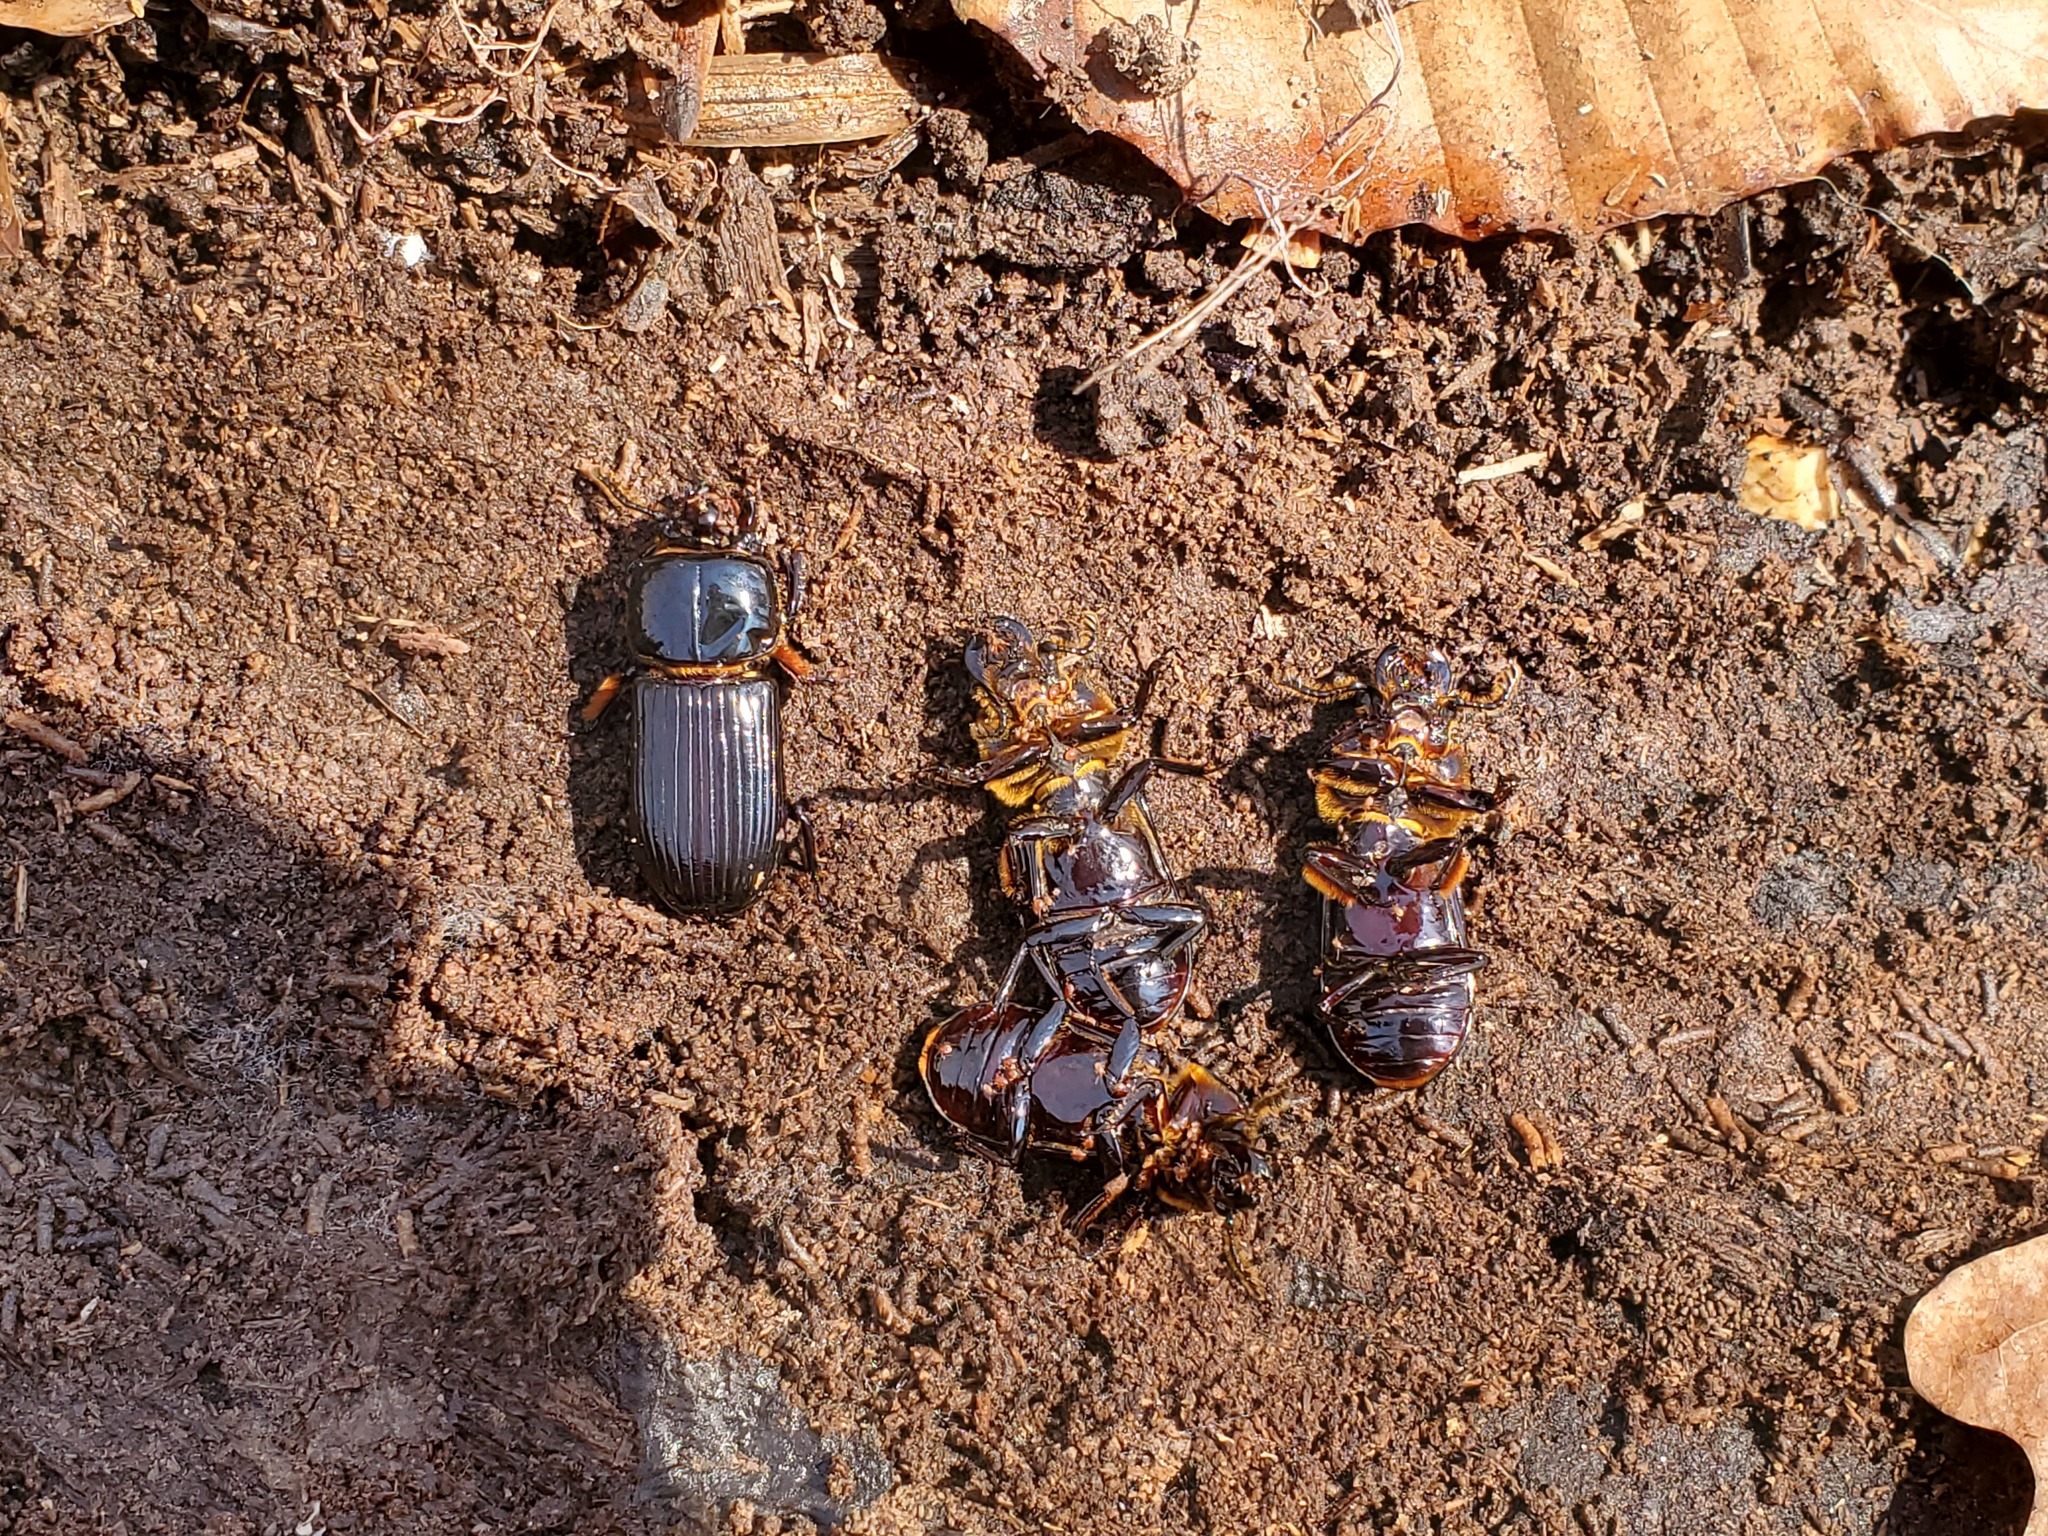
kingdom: Animalia
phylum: Arthropoda
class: Insecta
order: Coleoptera
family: Passalidae
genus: Odontotaenius
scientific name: Odontotaenius disjunctus
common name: Patent leather beetle
